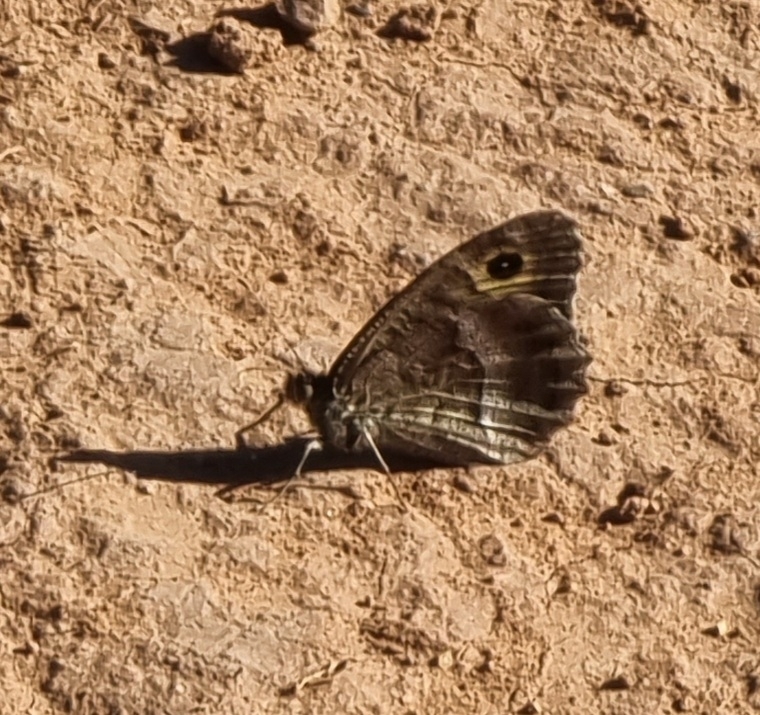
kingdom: Animalia
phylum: Arthropoda
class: Insecta
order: Lepidoptera
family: Nymphalidae
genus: Arethusana
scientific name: Arethusana arethusa
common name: False grayling
